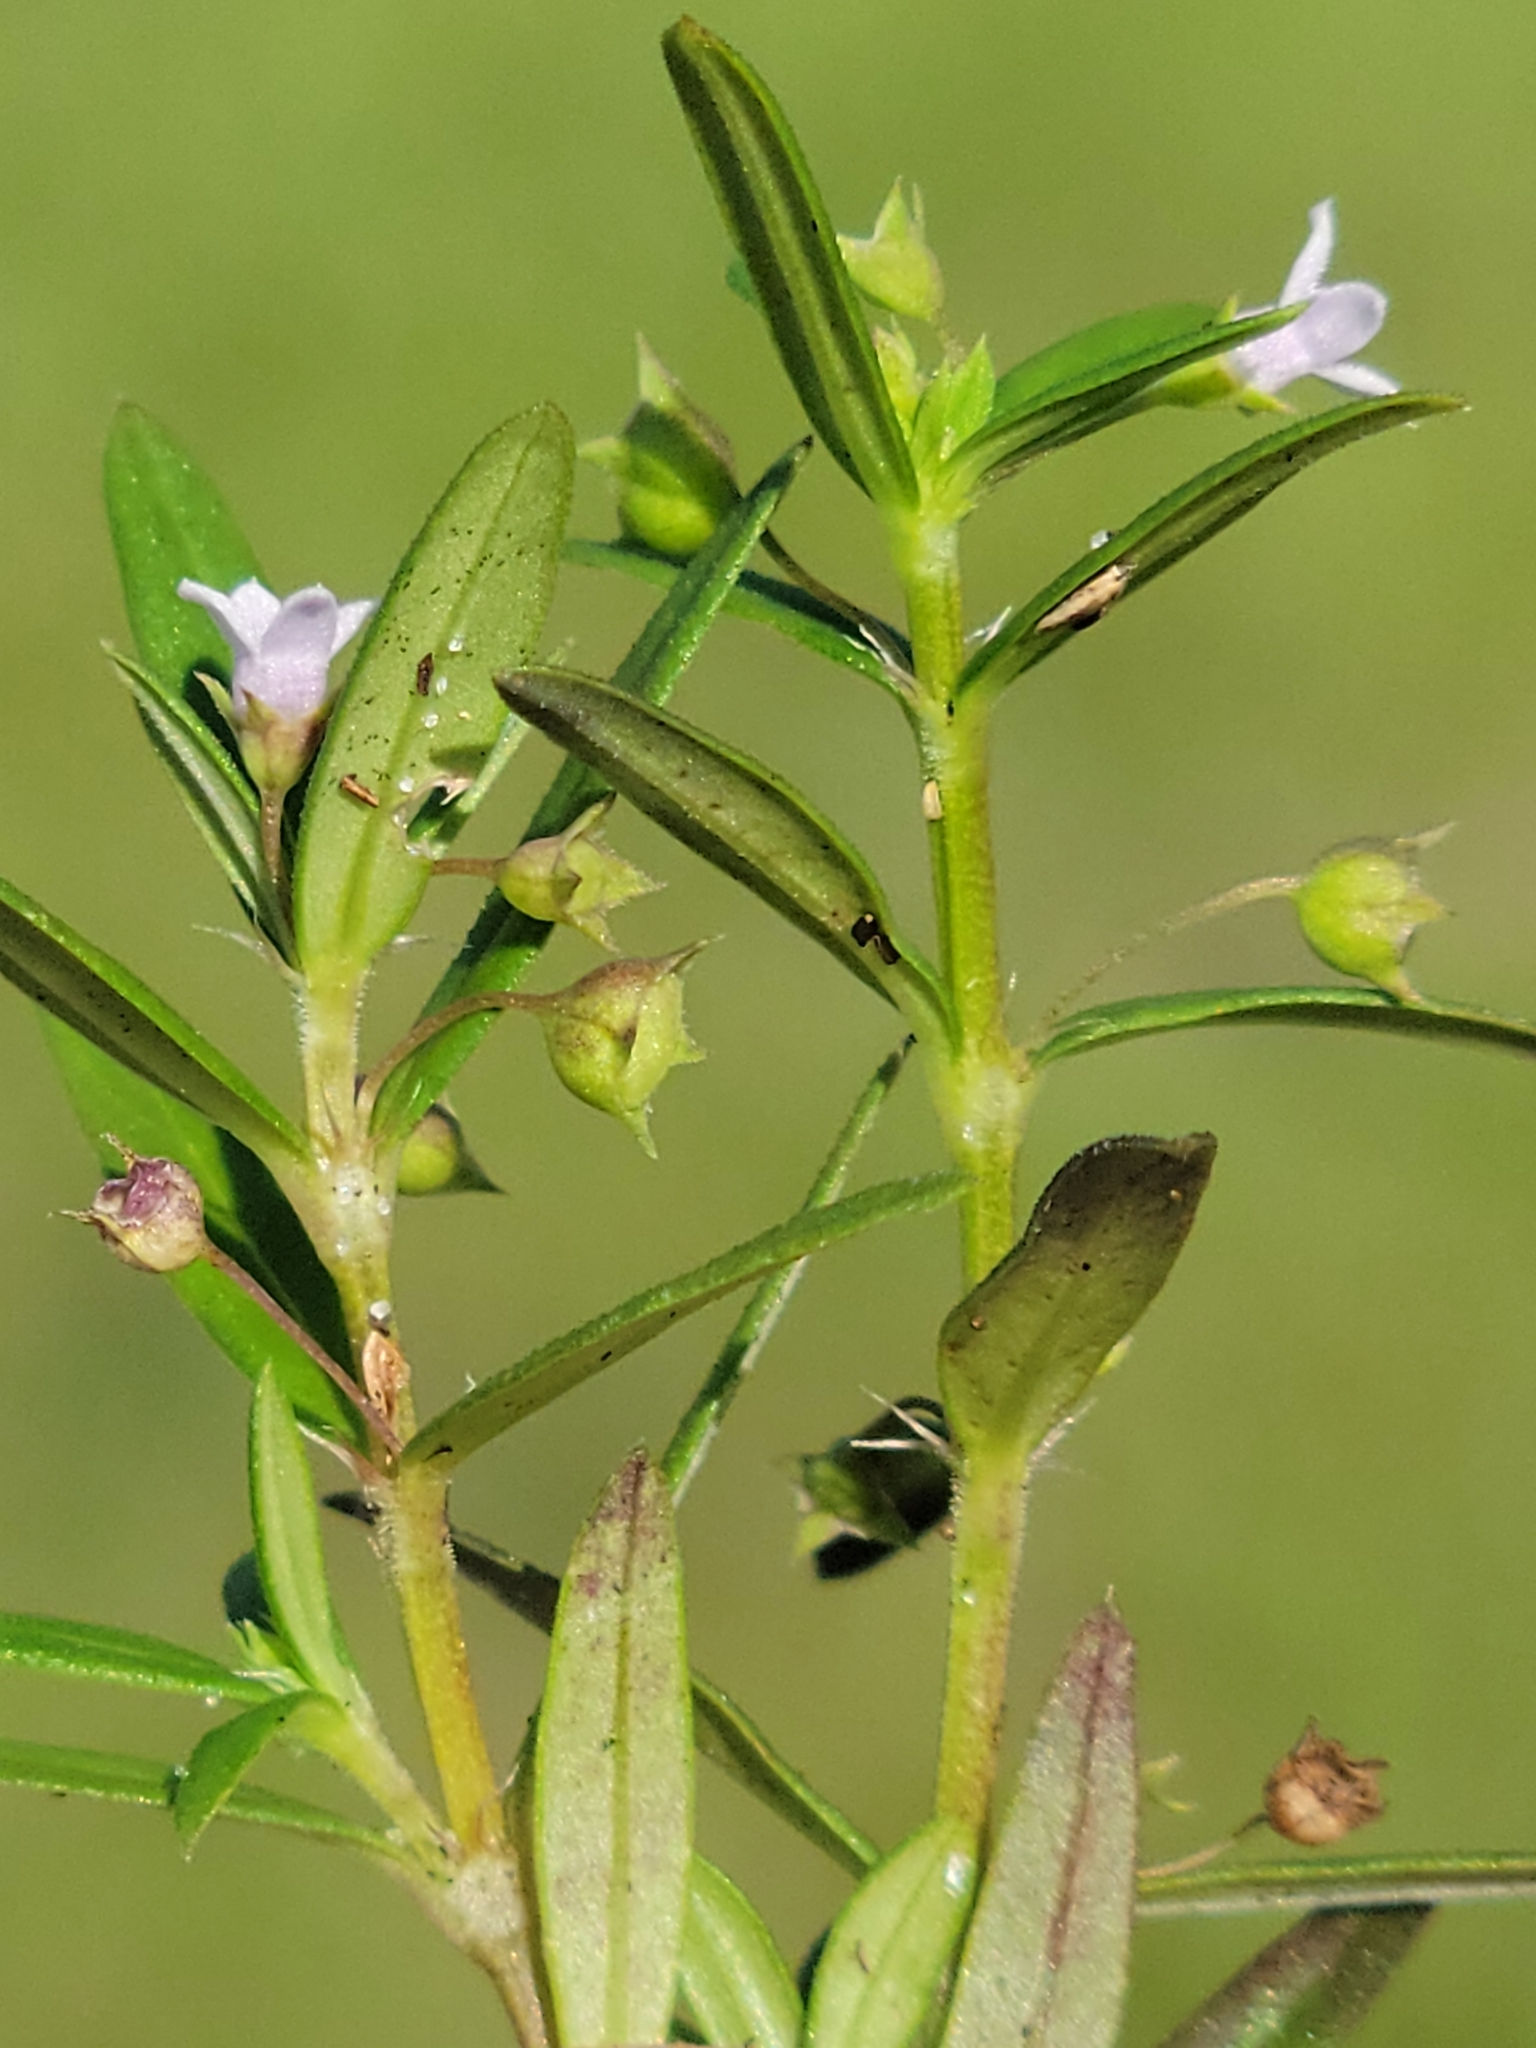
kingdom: Plantae
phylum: Tracheophyta
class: Magnoliopsida
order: Gentianales
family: Rubiaceae
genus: Oldenlandia
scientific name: Oldenlandia corymbosa
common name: Flat-top mille graines
